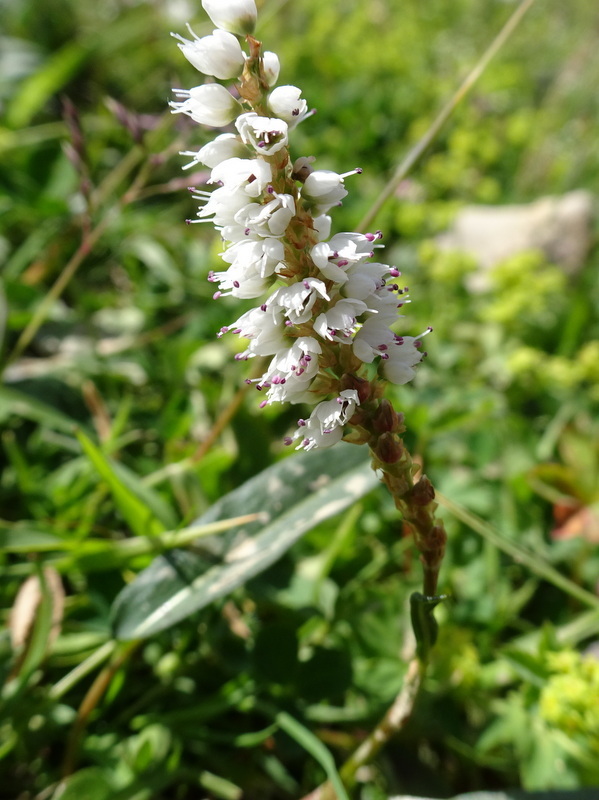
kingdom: Plantae
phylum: Tracheophyta
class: Magnoliopsida
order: Caryophyllales
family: Polygonaceae
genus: Bistorta
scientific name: Bistorta vivipara
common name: Alpine bistort
